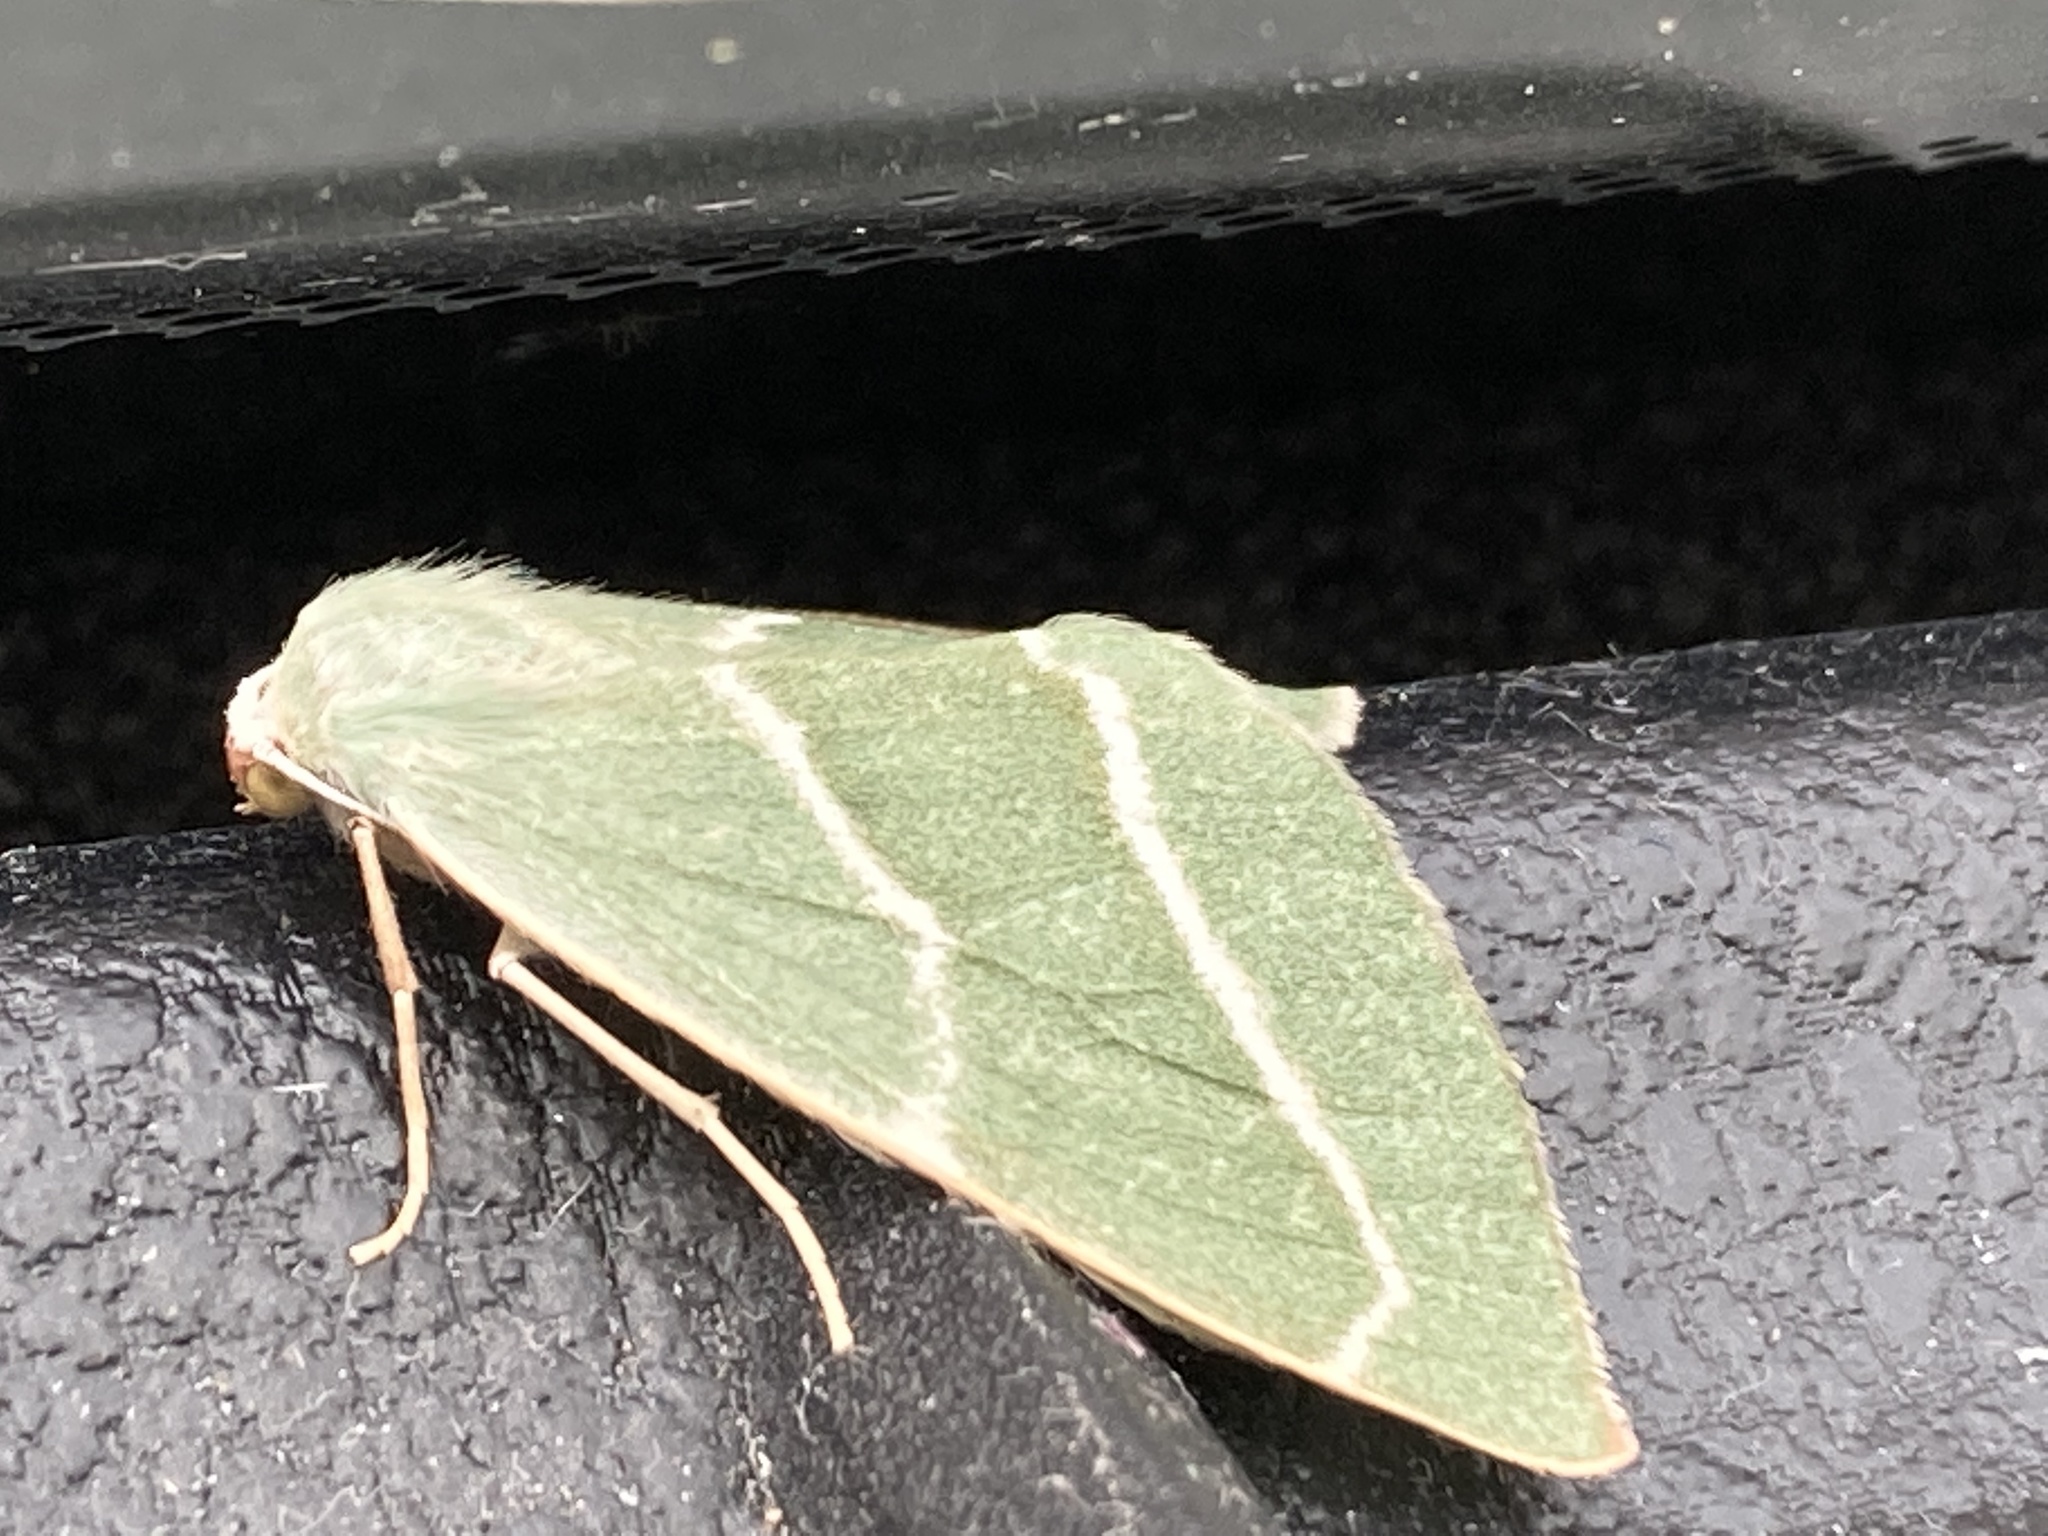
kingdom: Animalia
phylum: Arthropoda
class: Insecta
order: Lepidoptera
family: Geometridae
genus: Hylaea
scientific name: Hylaea fasciaria
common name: Barred red
